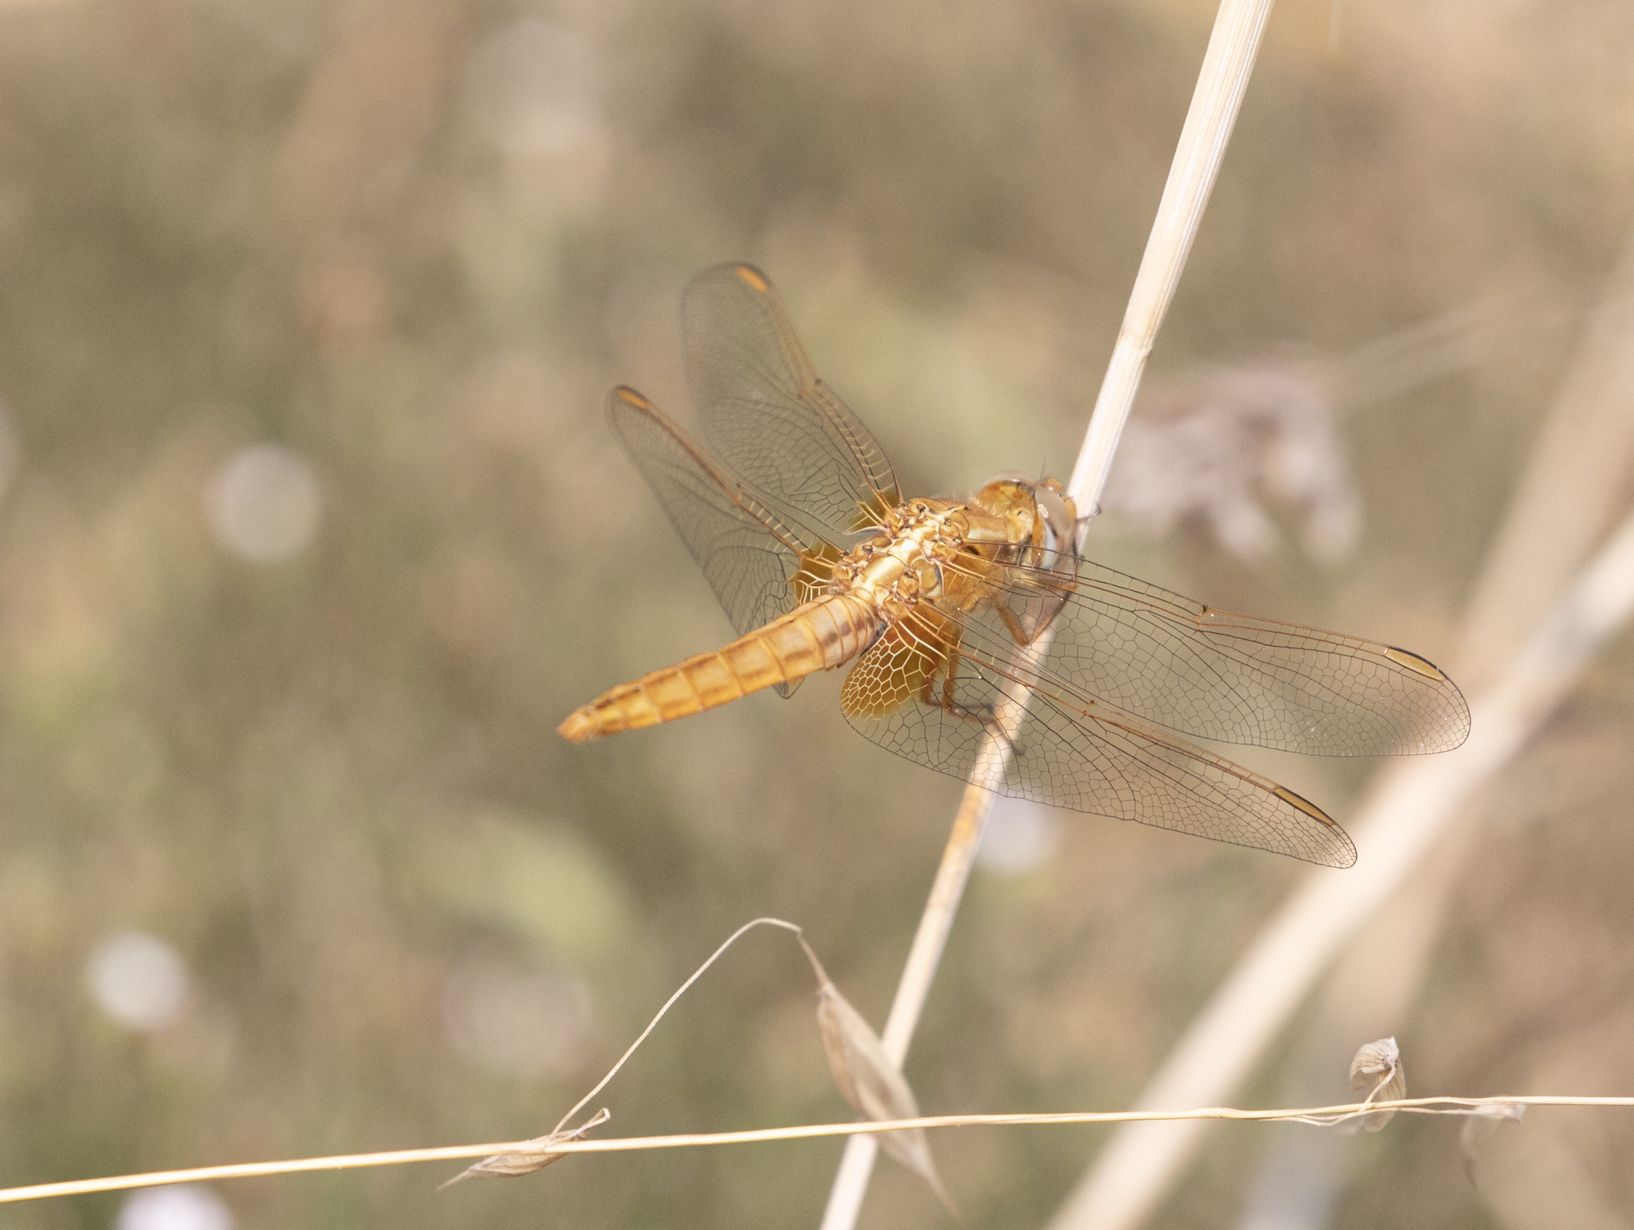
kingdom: Animalia
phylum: Arthropoda
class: Insecta
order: Odonata
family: Libellulidae
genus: Crocothemis
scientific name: Crocothemis erythraea
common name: Scarlet dragonfly
